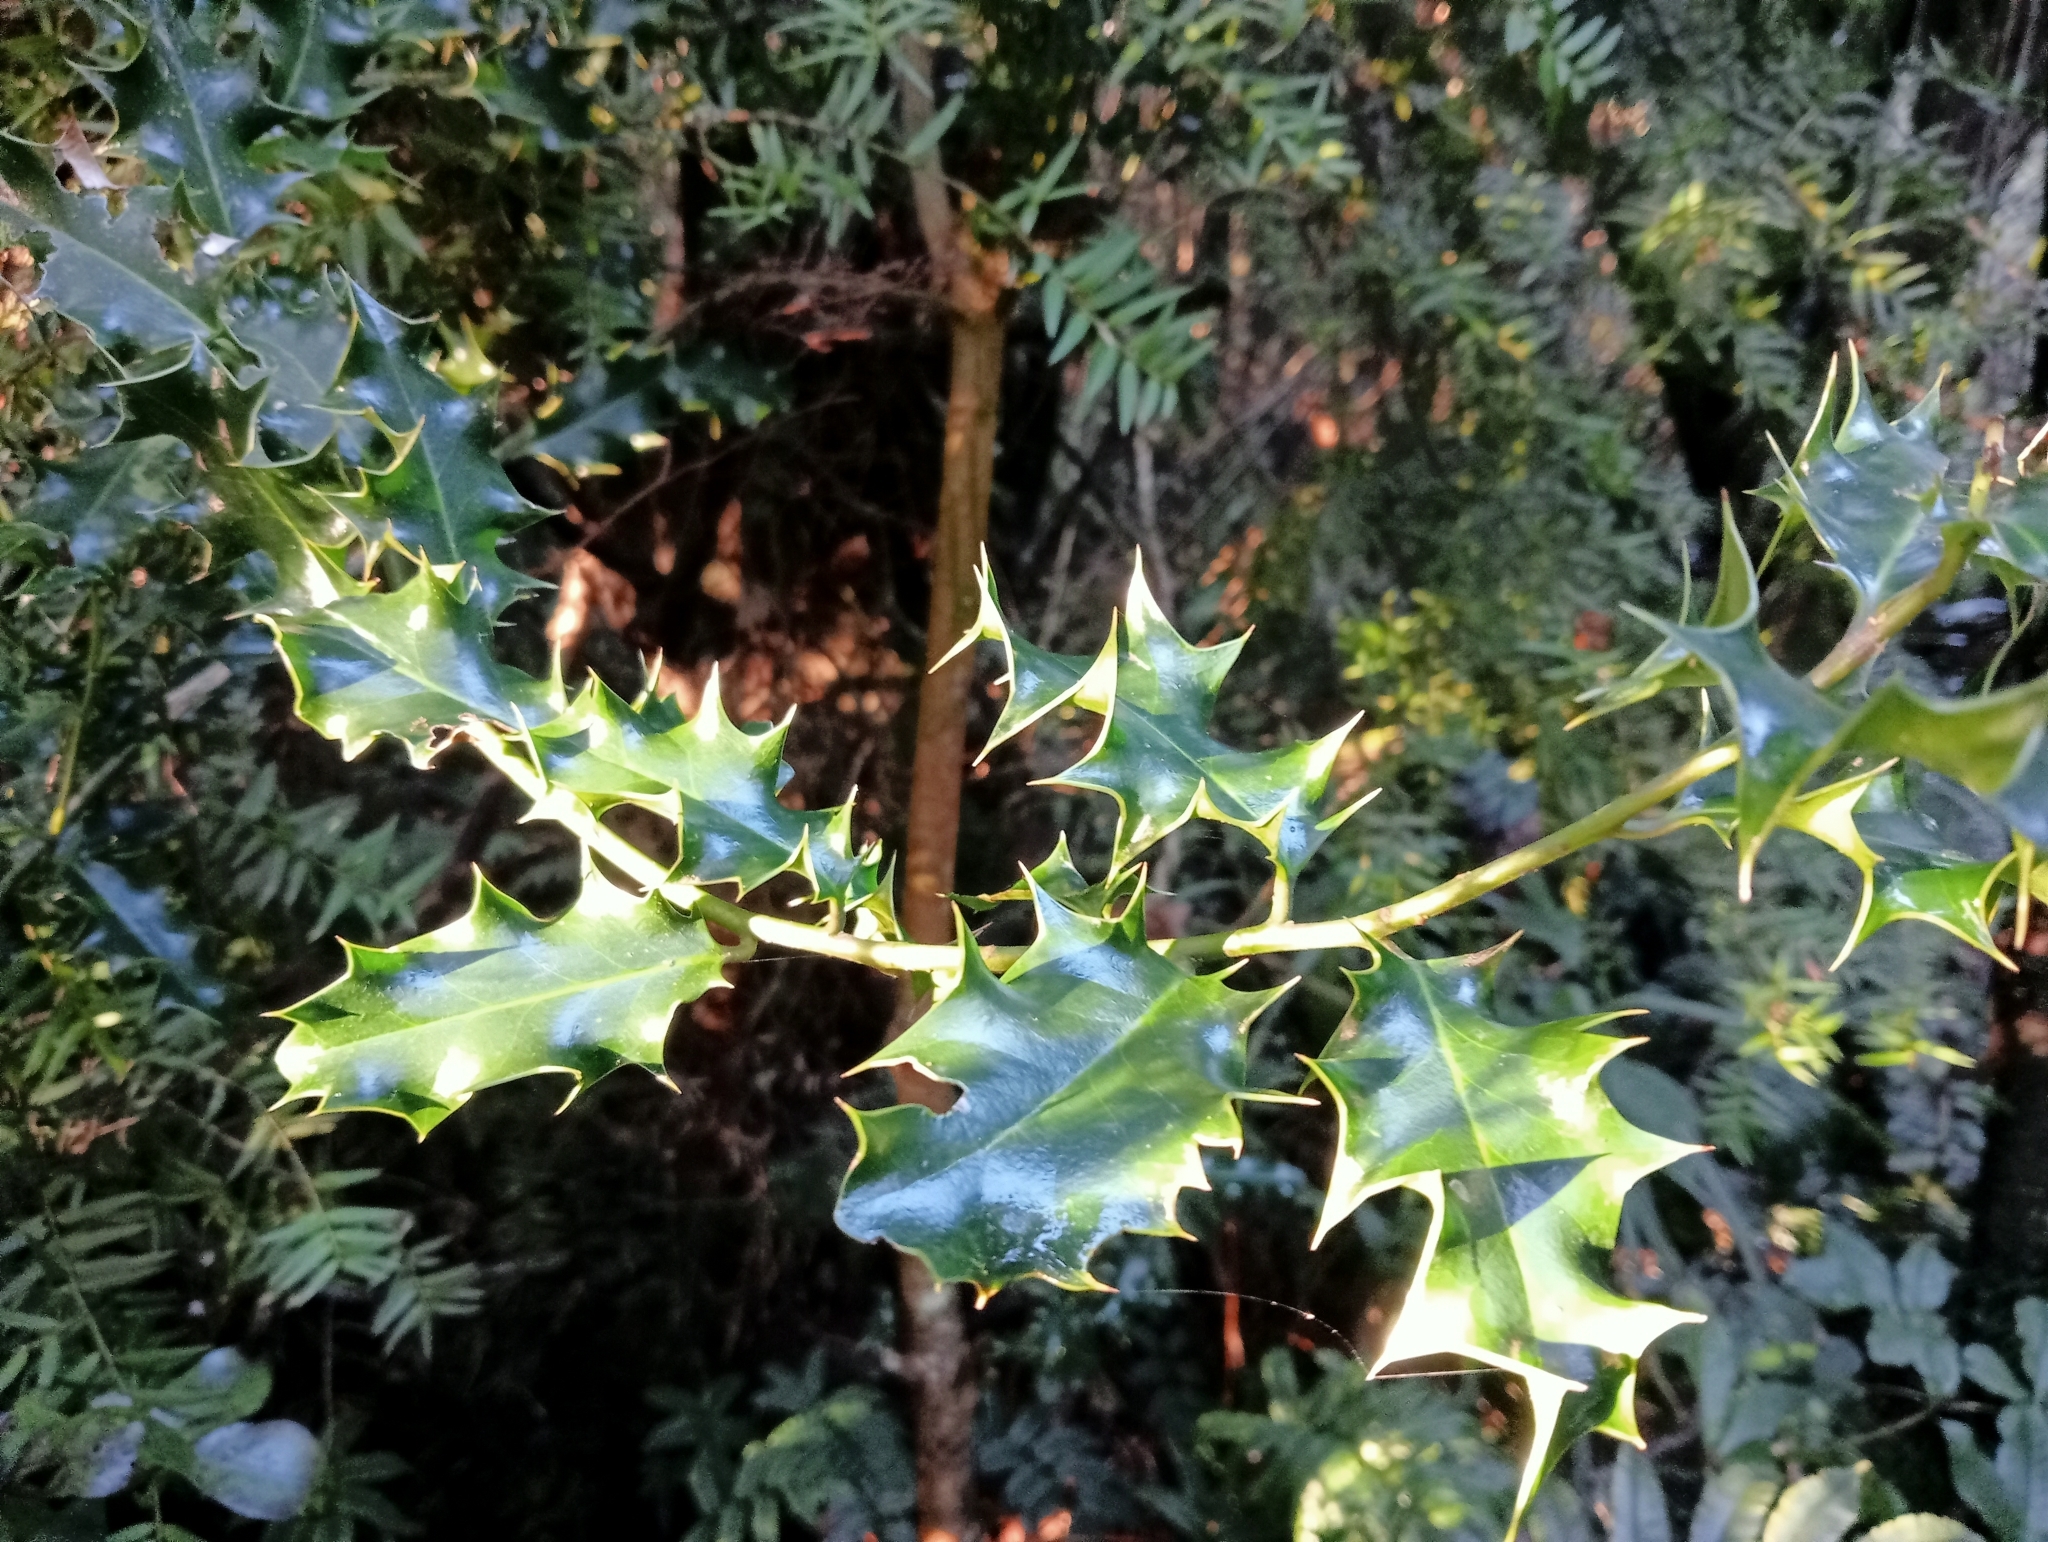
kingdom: Plantae
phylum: Tracheophyta
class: Magnoliopsida
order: Aquifoliales
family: Aquifoliaceae
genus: Ilex
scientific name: Ilex aquifolium
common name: English holly
